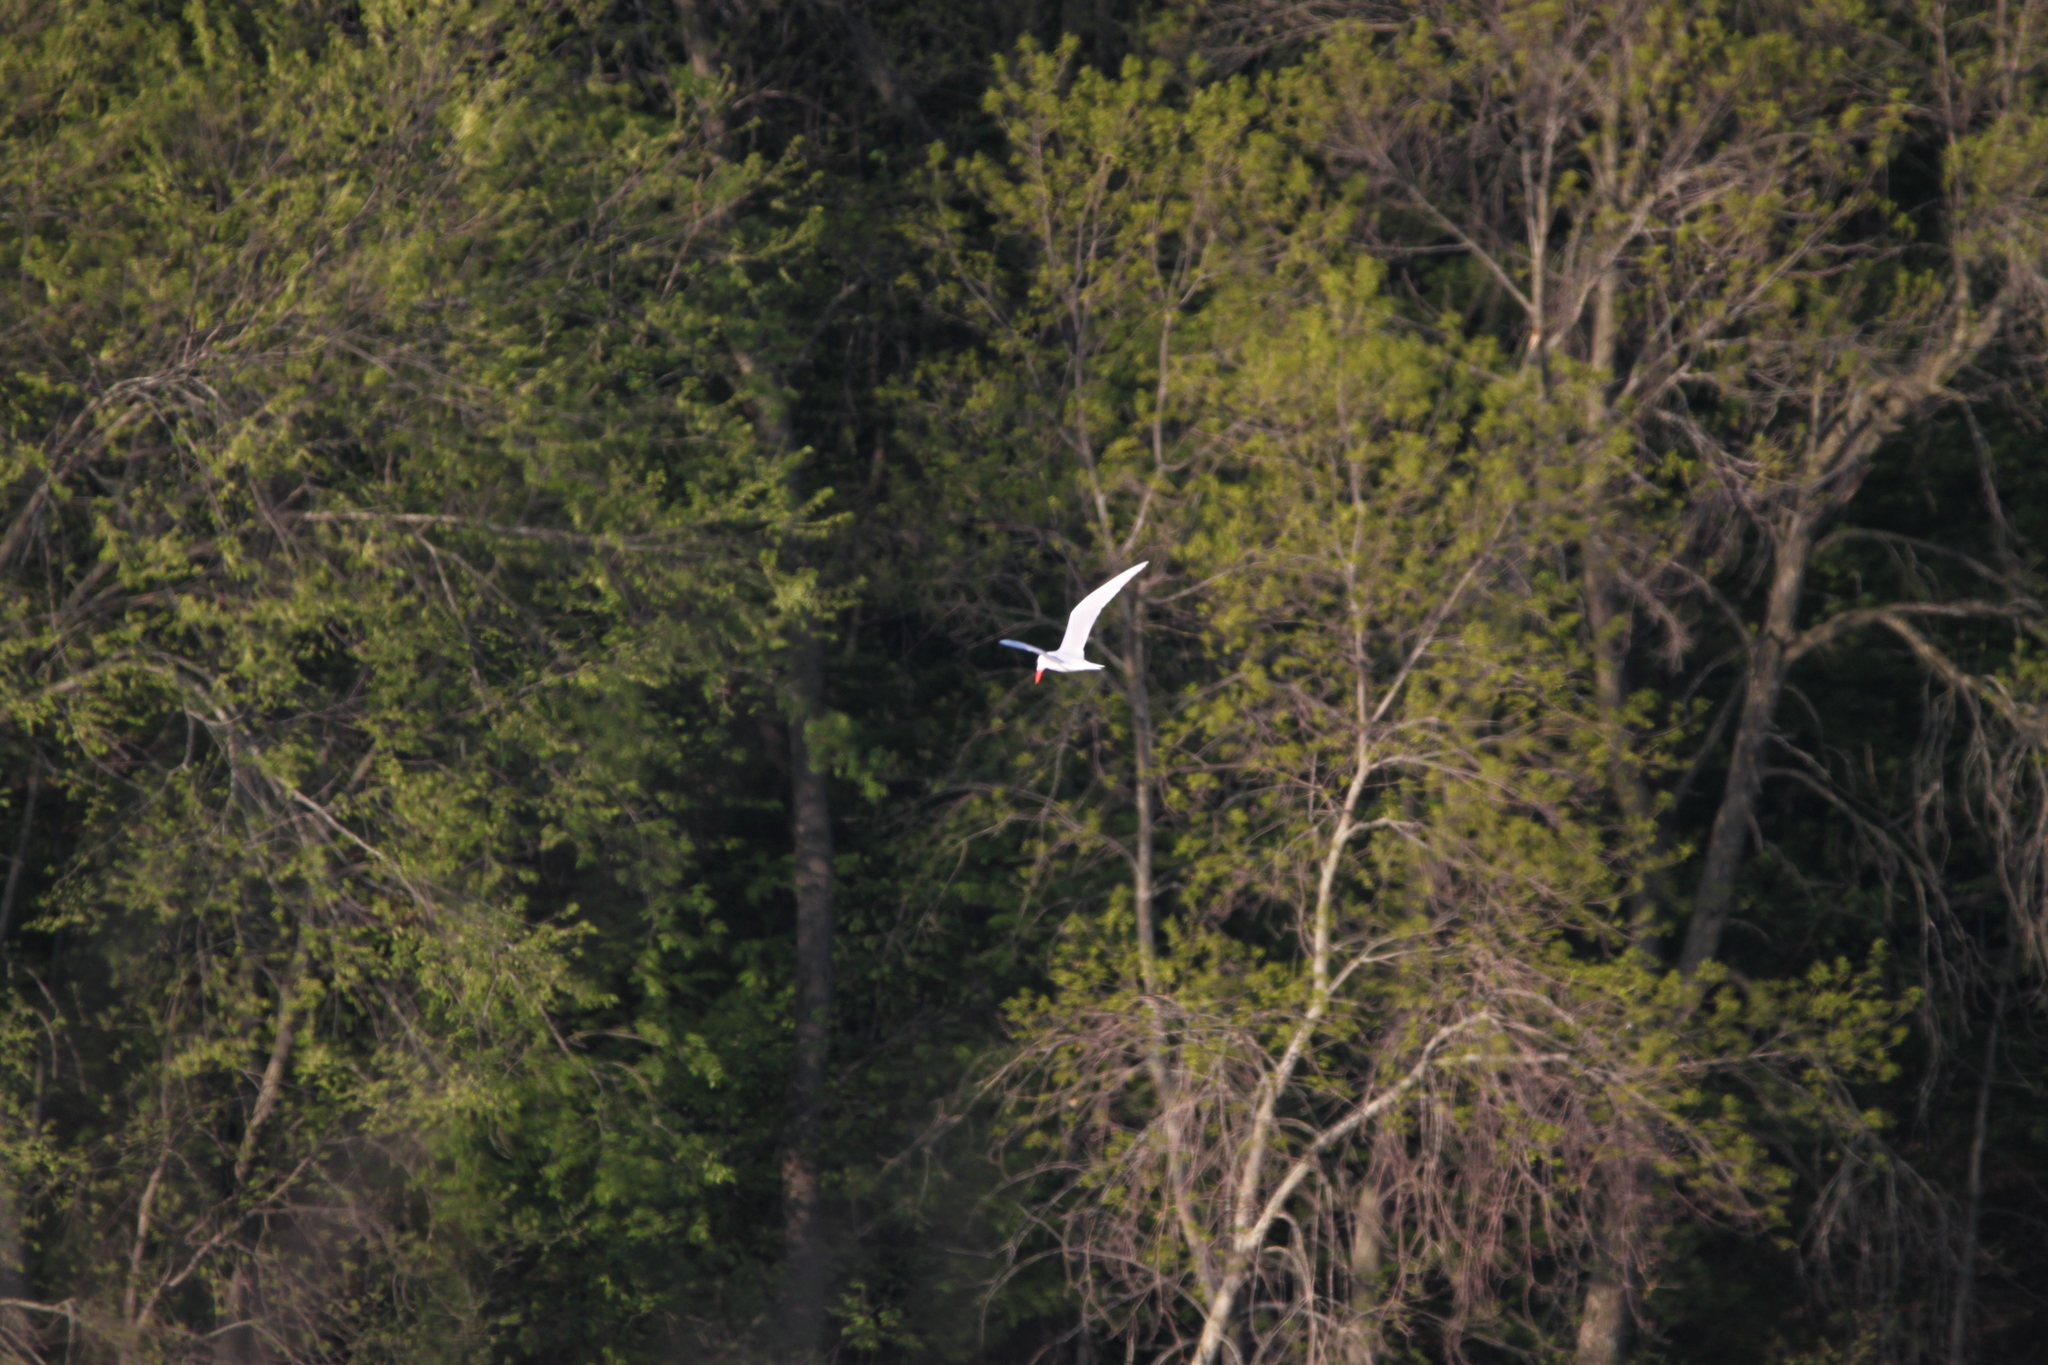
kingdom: Animalia
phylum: Chordata
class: Aves
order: Charadriiformes
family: Laridae
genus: Hydroprogne
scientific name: Hydroprogne caspia
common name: Caspian tern
